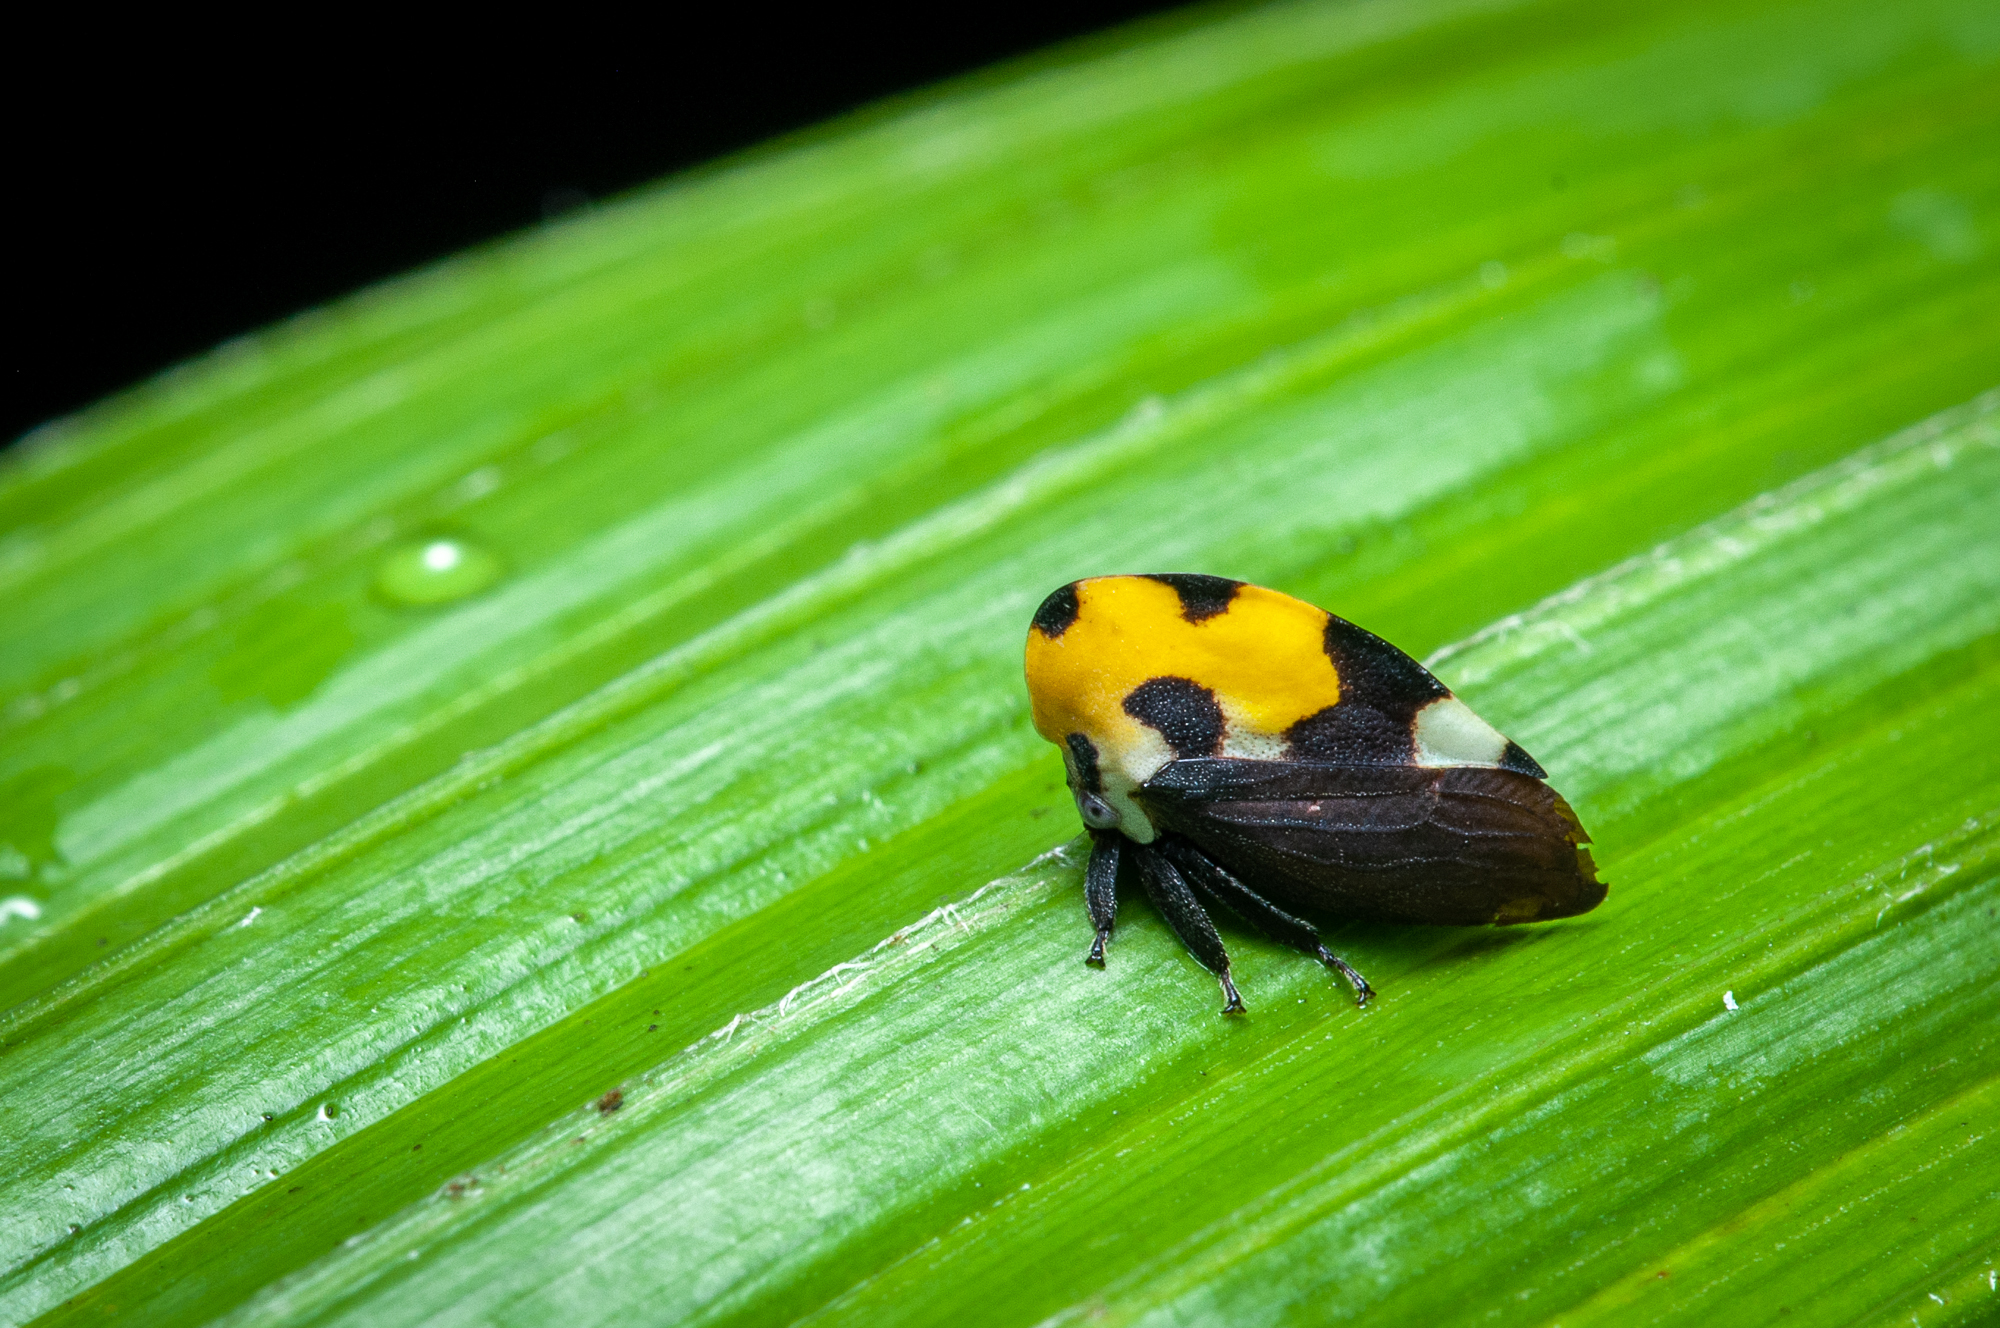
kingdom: Animalia
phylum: Arthropoda
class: Insecta
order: Hemiptera
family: Membracidae
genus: Membracis
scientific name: Membracis mexicana
